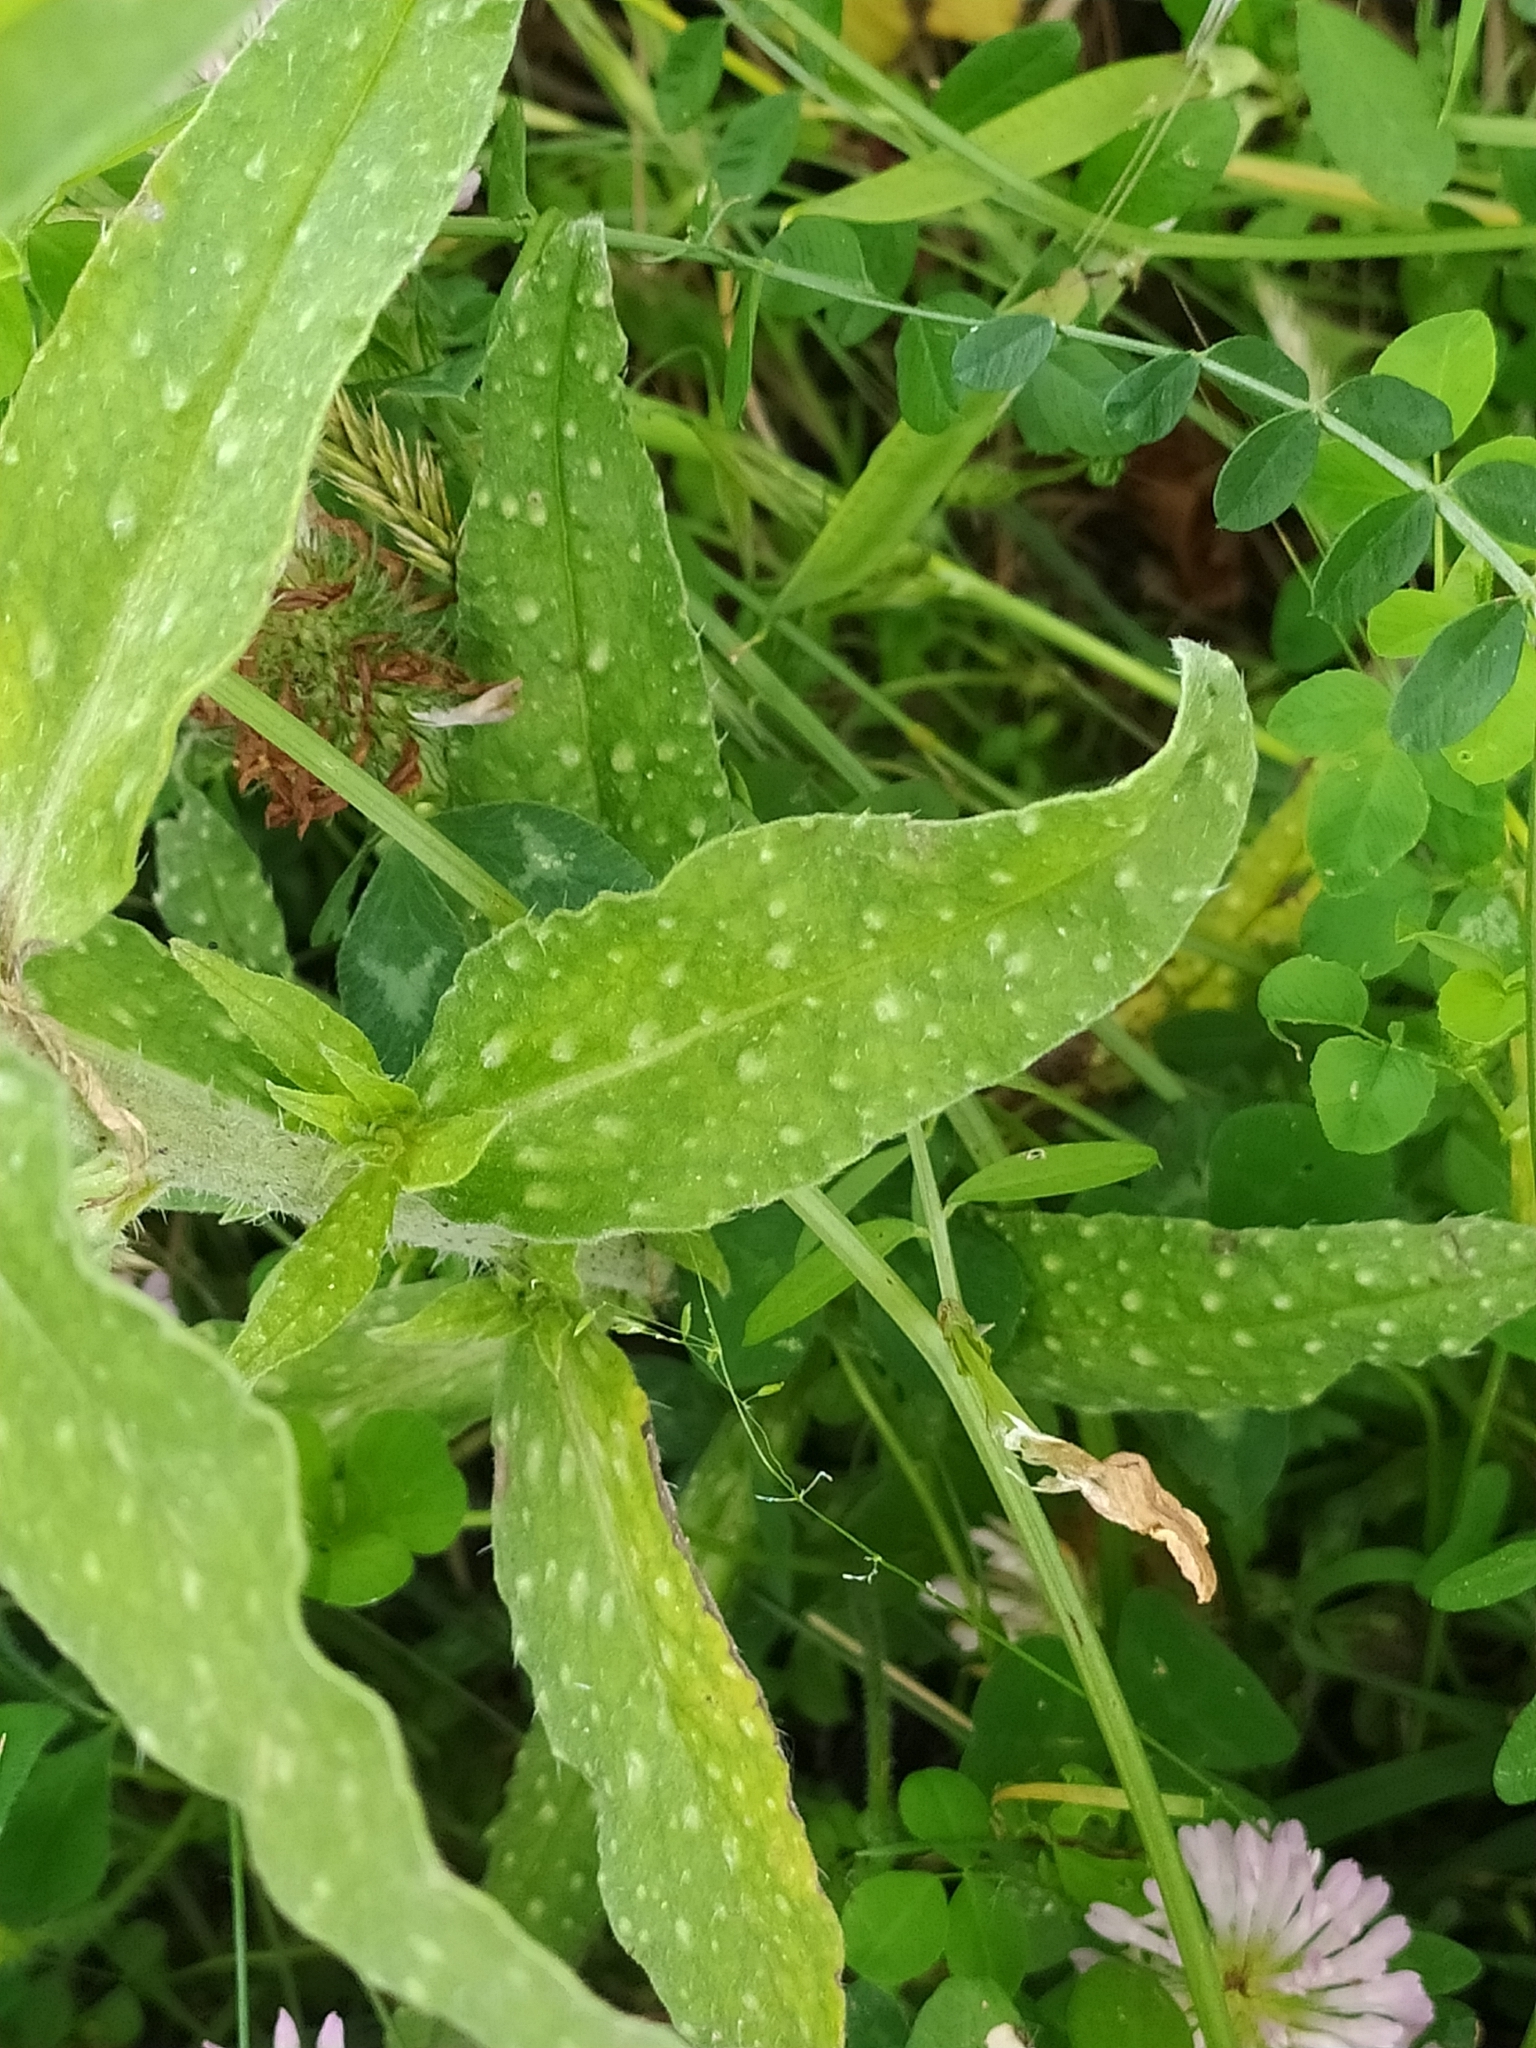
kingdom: Plantae
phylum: Tracheophyta
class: Magnoliopsida
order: Boraginales
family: Boraginaceae
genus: Echium
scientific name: Echium vulgare
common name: Common viper's bugloss
